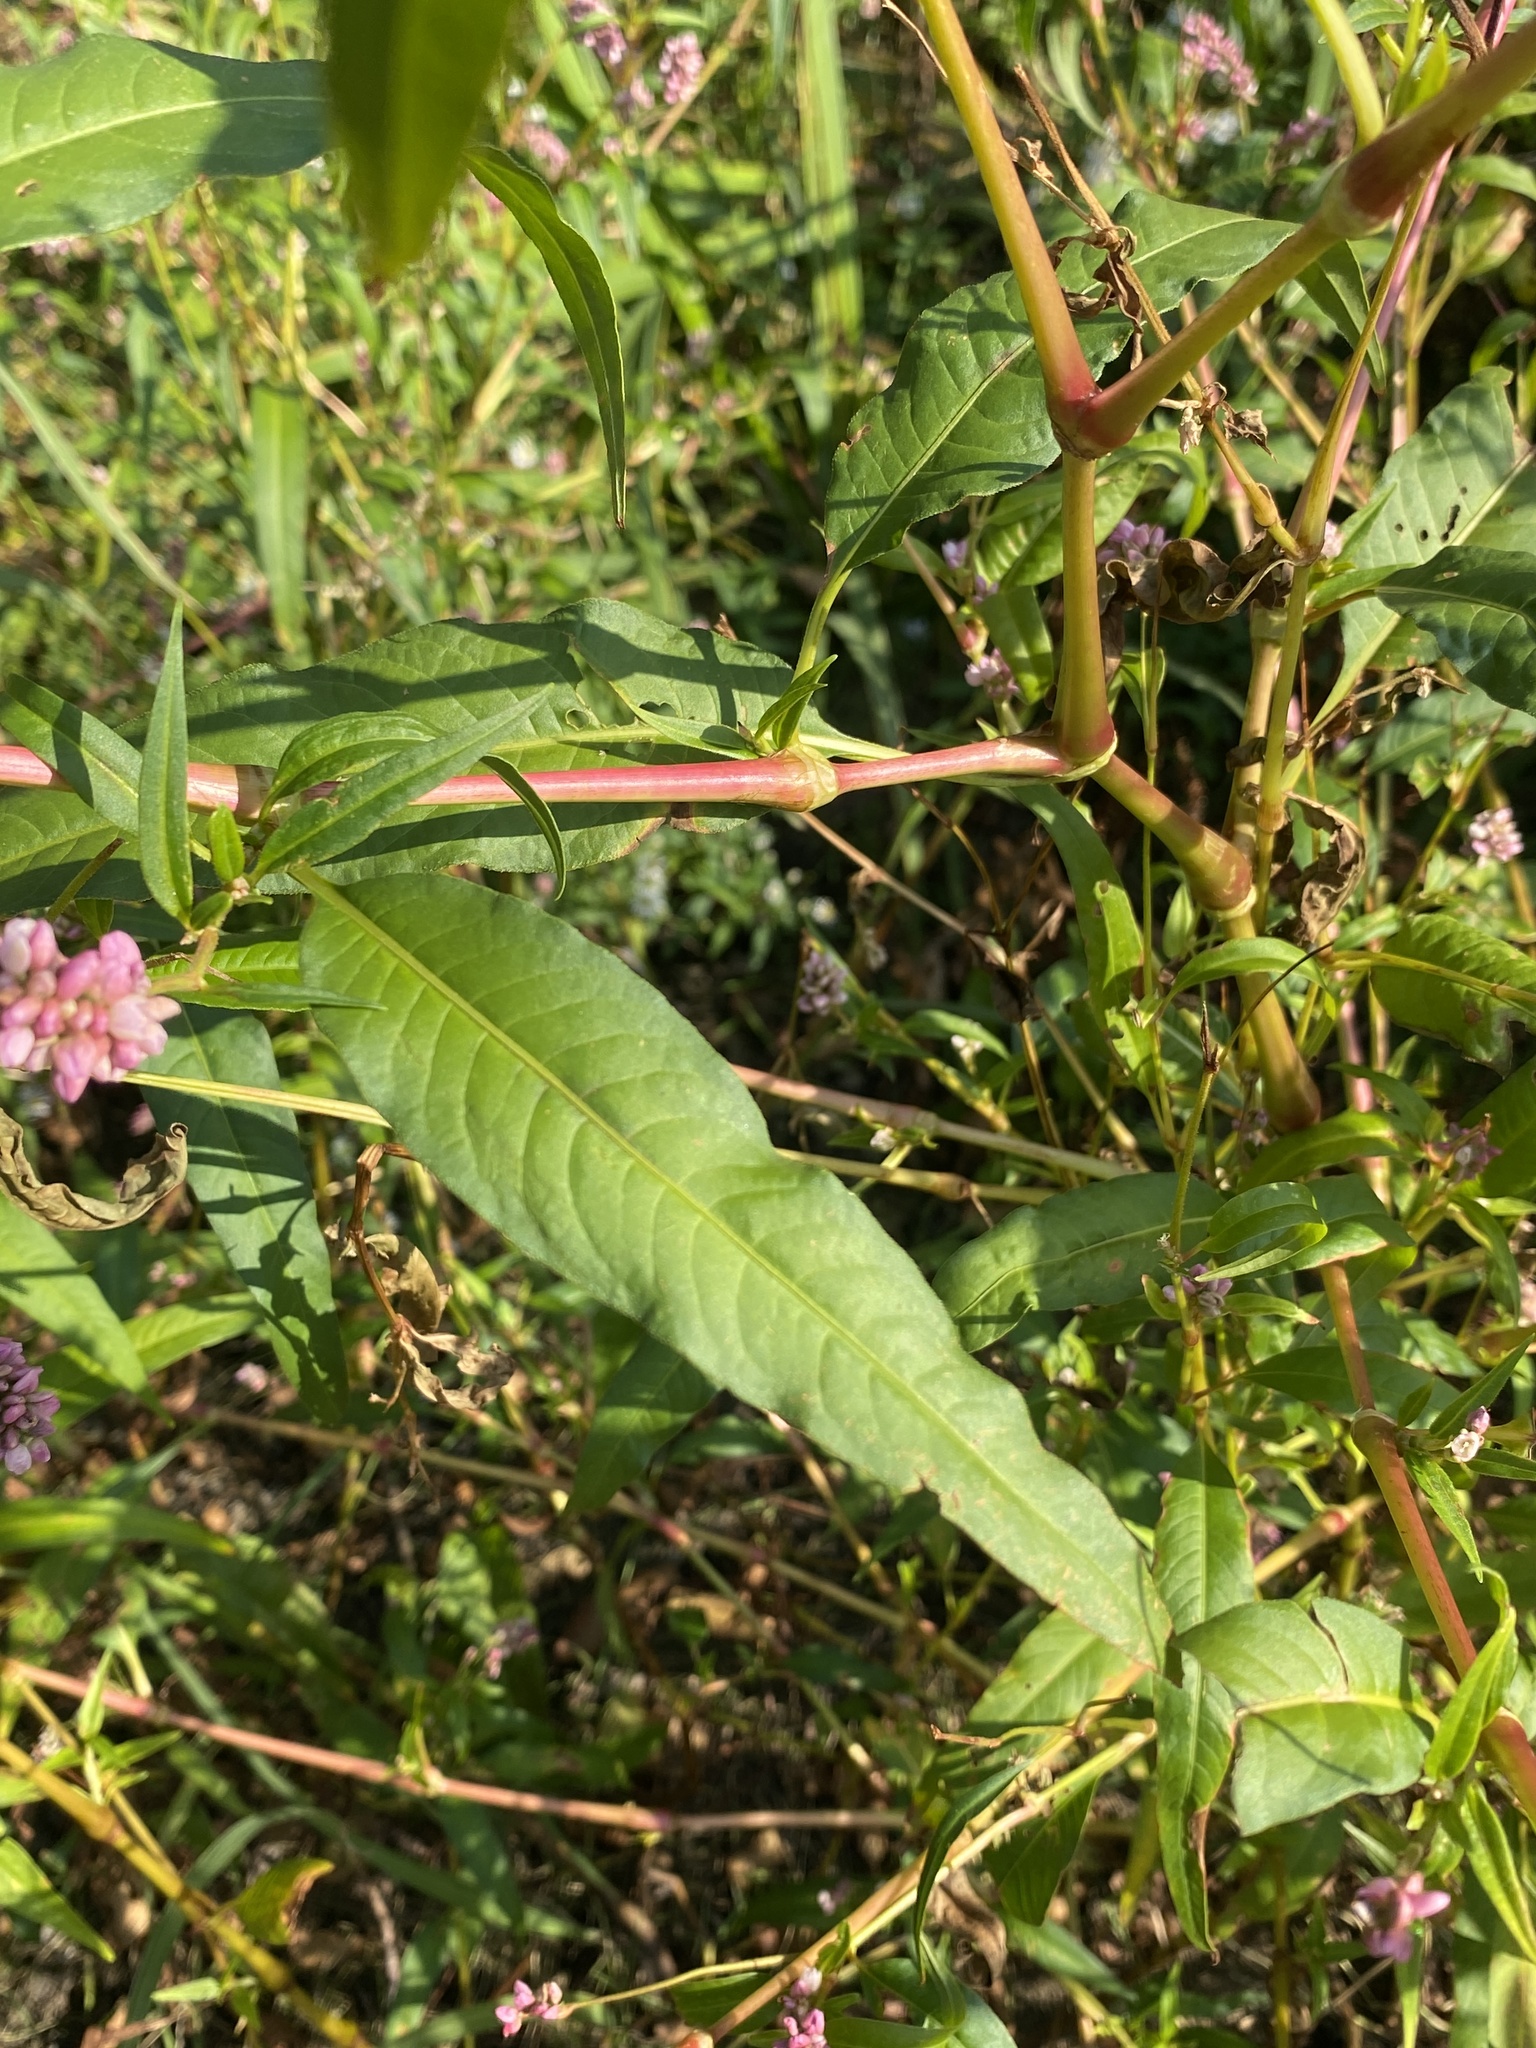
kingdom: Plantae
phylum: Tracheophyta
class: Magnoliopsida
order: Caryophyllales
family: Polygonaceae
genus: Persicaria
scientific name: Persicaria pensylvanica
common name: Pinkweed
